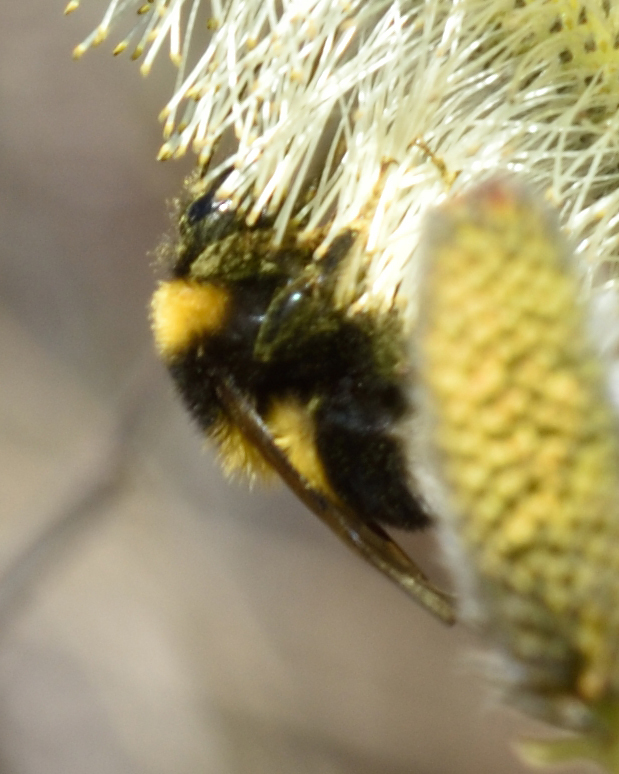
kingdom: Animalia
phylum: Arthropoda
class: Insecta
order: Hymenoptera
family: Apidae
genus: Bombus
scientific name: Bombus hortorum
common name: Garden bumblebee
